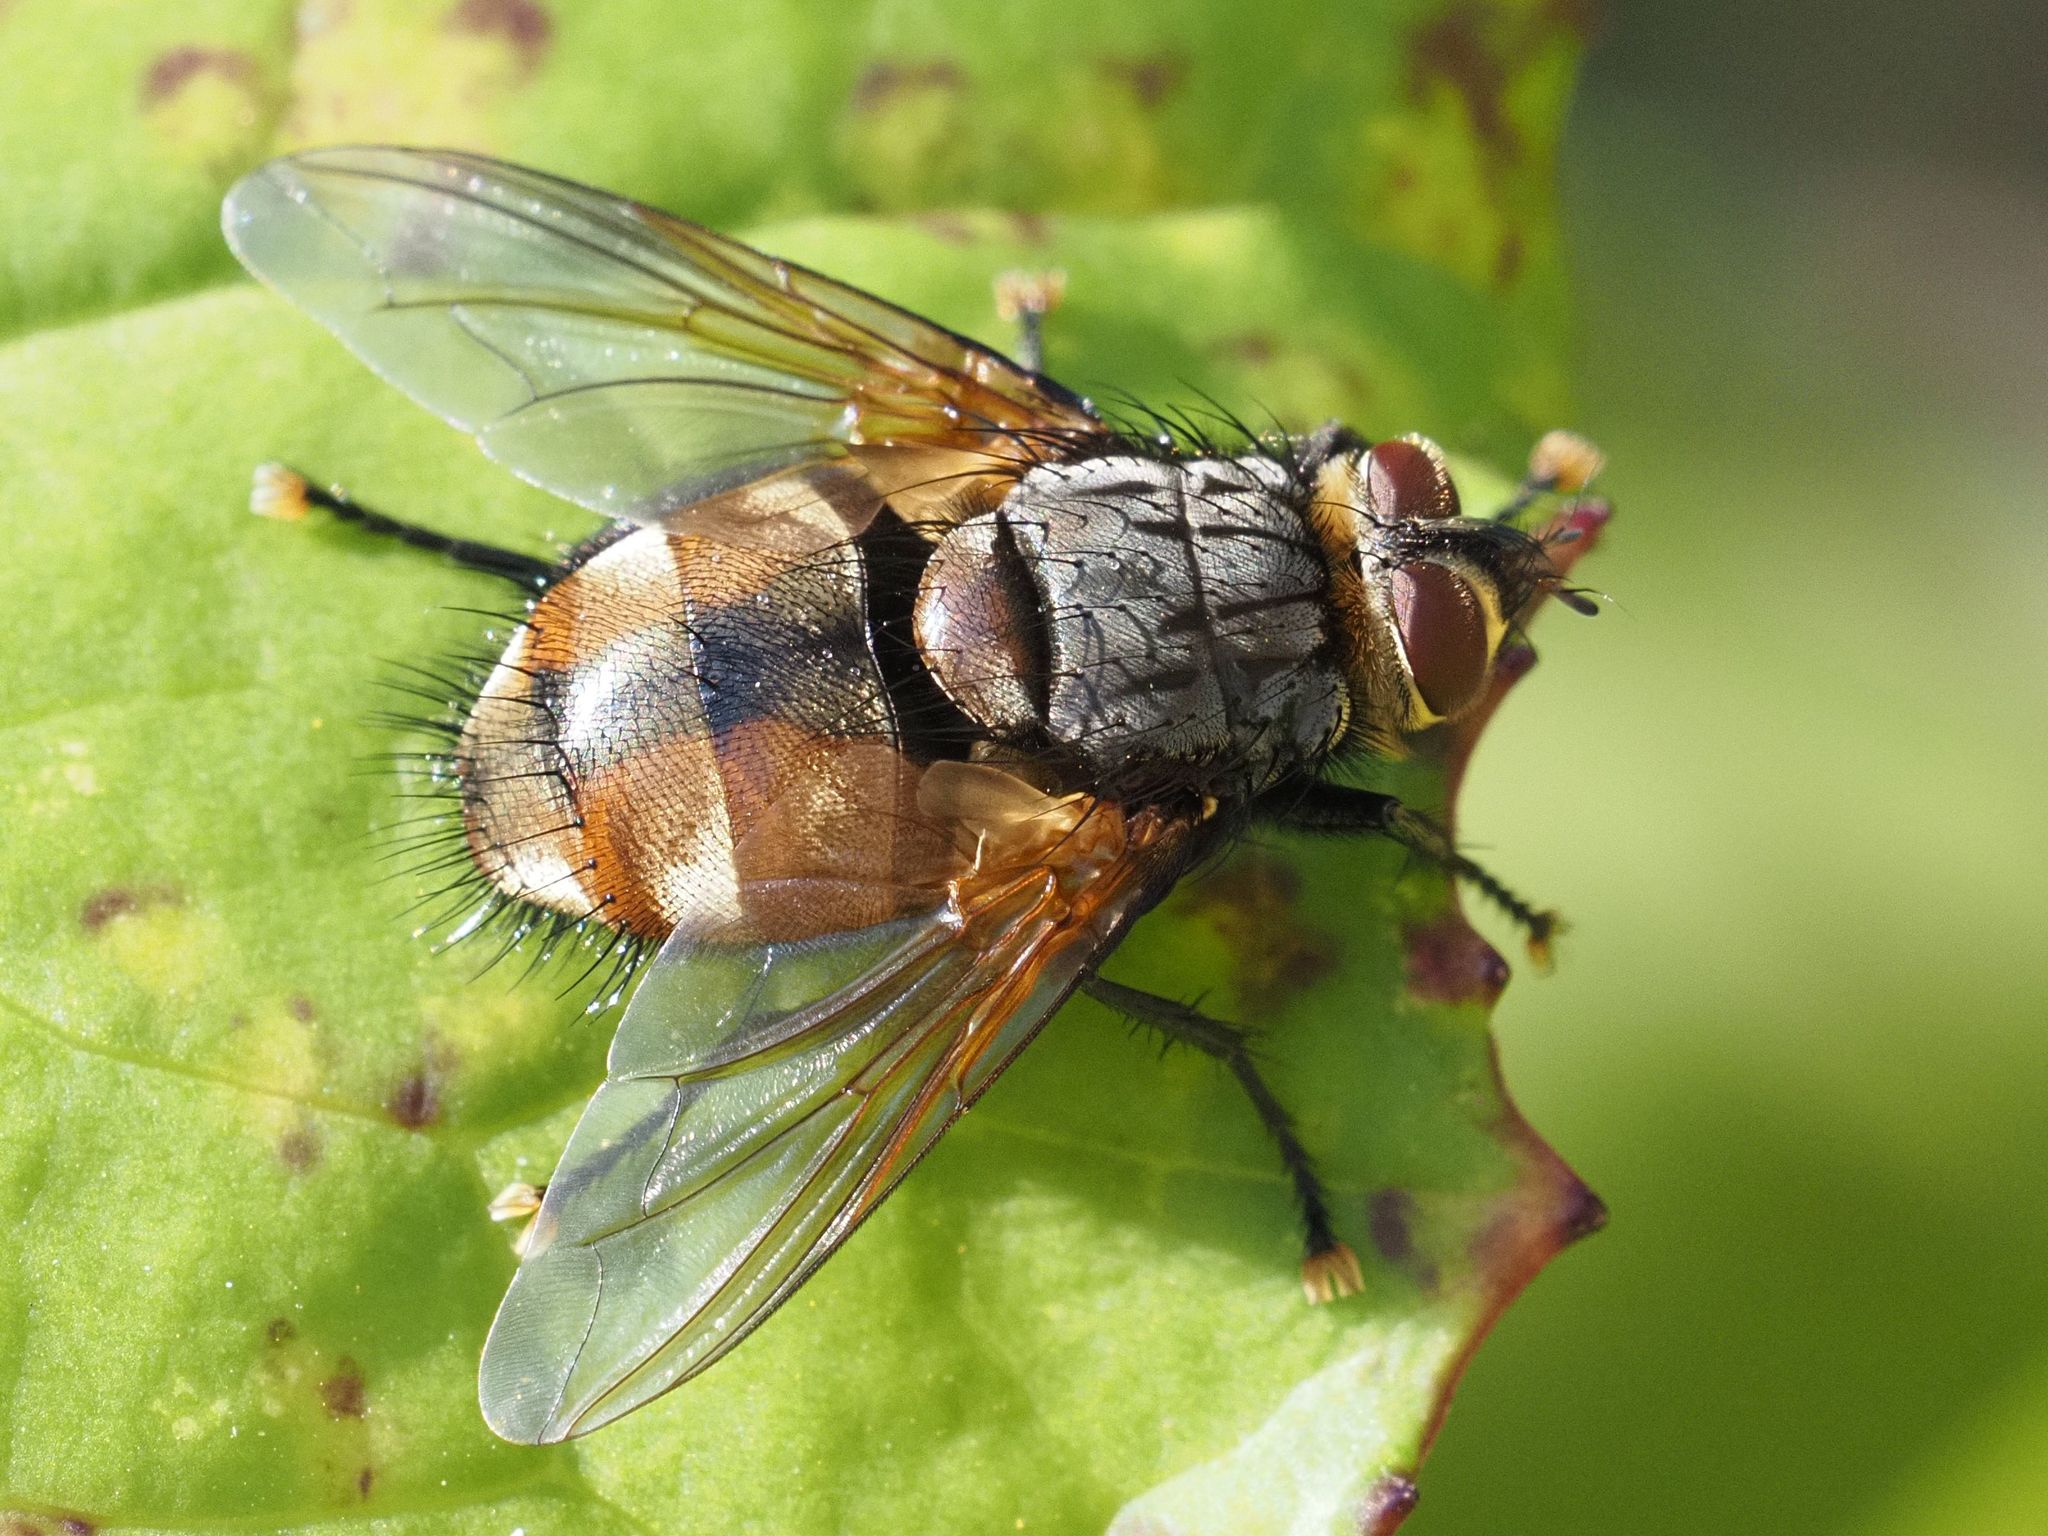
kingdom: Animalia
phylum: Arthropoda
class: Insecta
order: Diptera
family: Tachinidae
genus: Nemoraea
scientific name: Nemoraea pellucida
